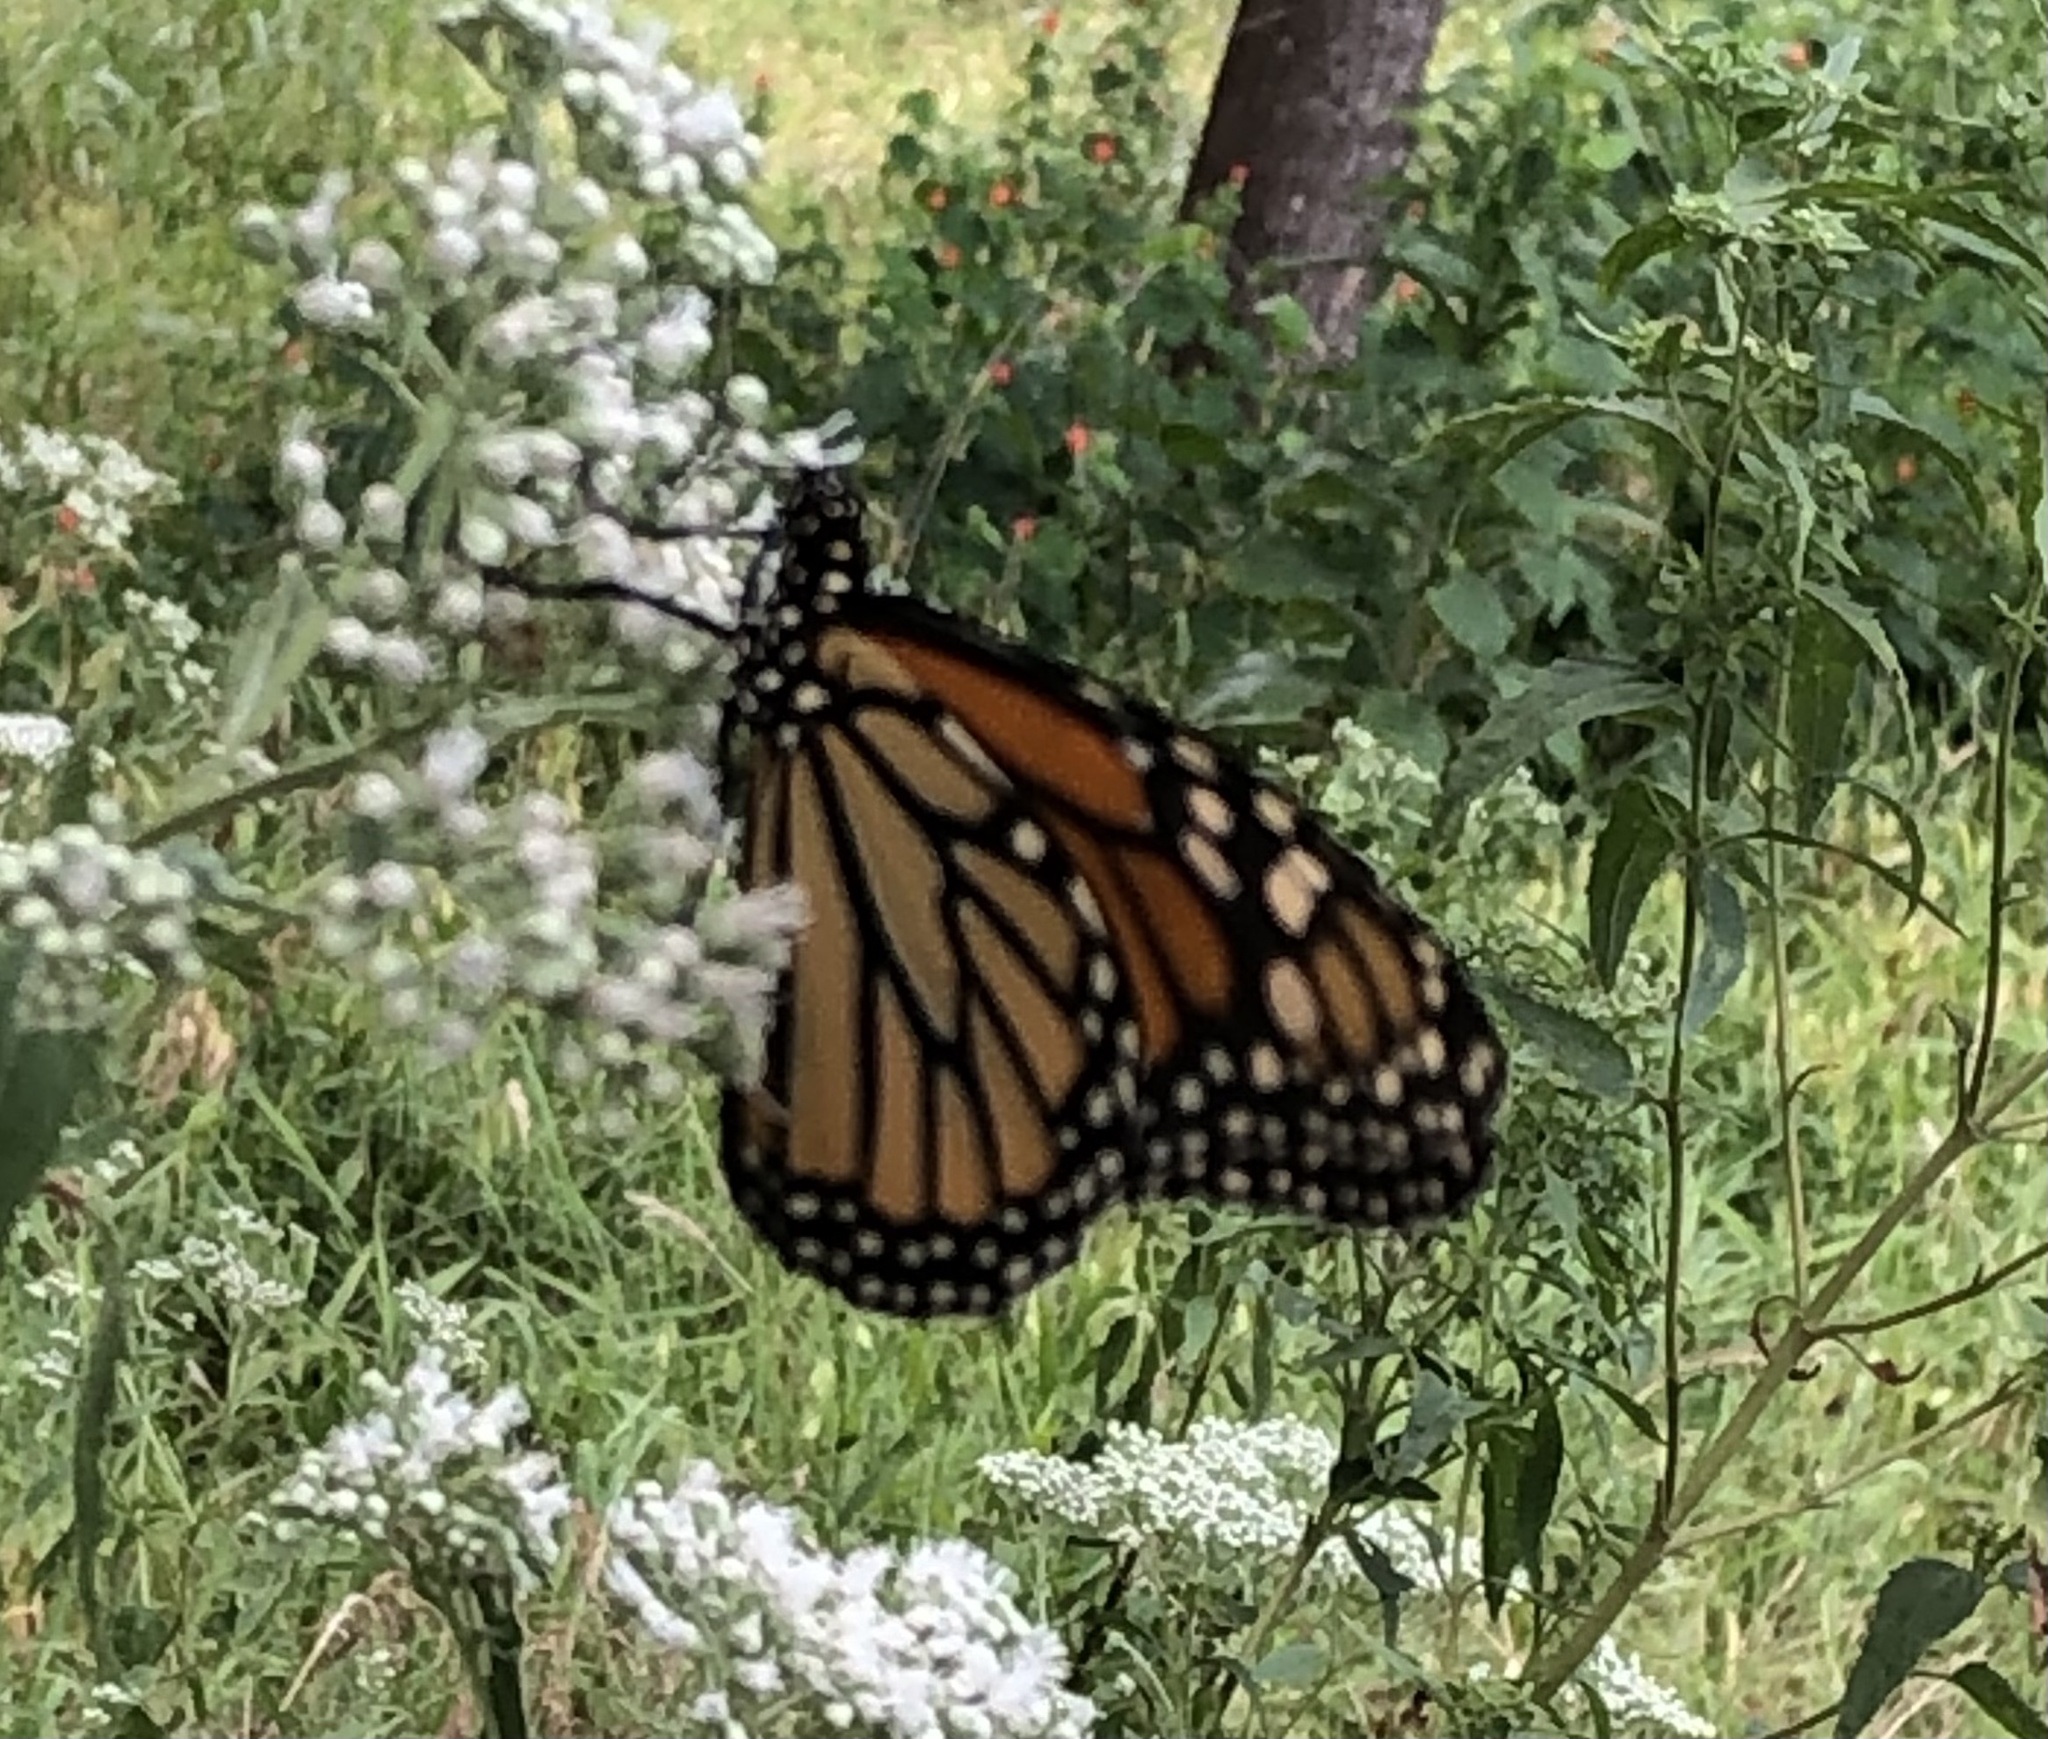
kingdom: Animalia
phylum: Arthropoda
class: Insecta
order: Lepidoptera
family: Nymphalidae
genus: Danaus
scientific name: Danaus plexippus
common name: Monarch
